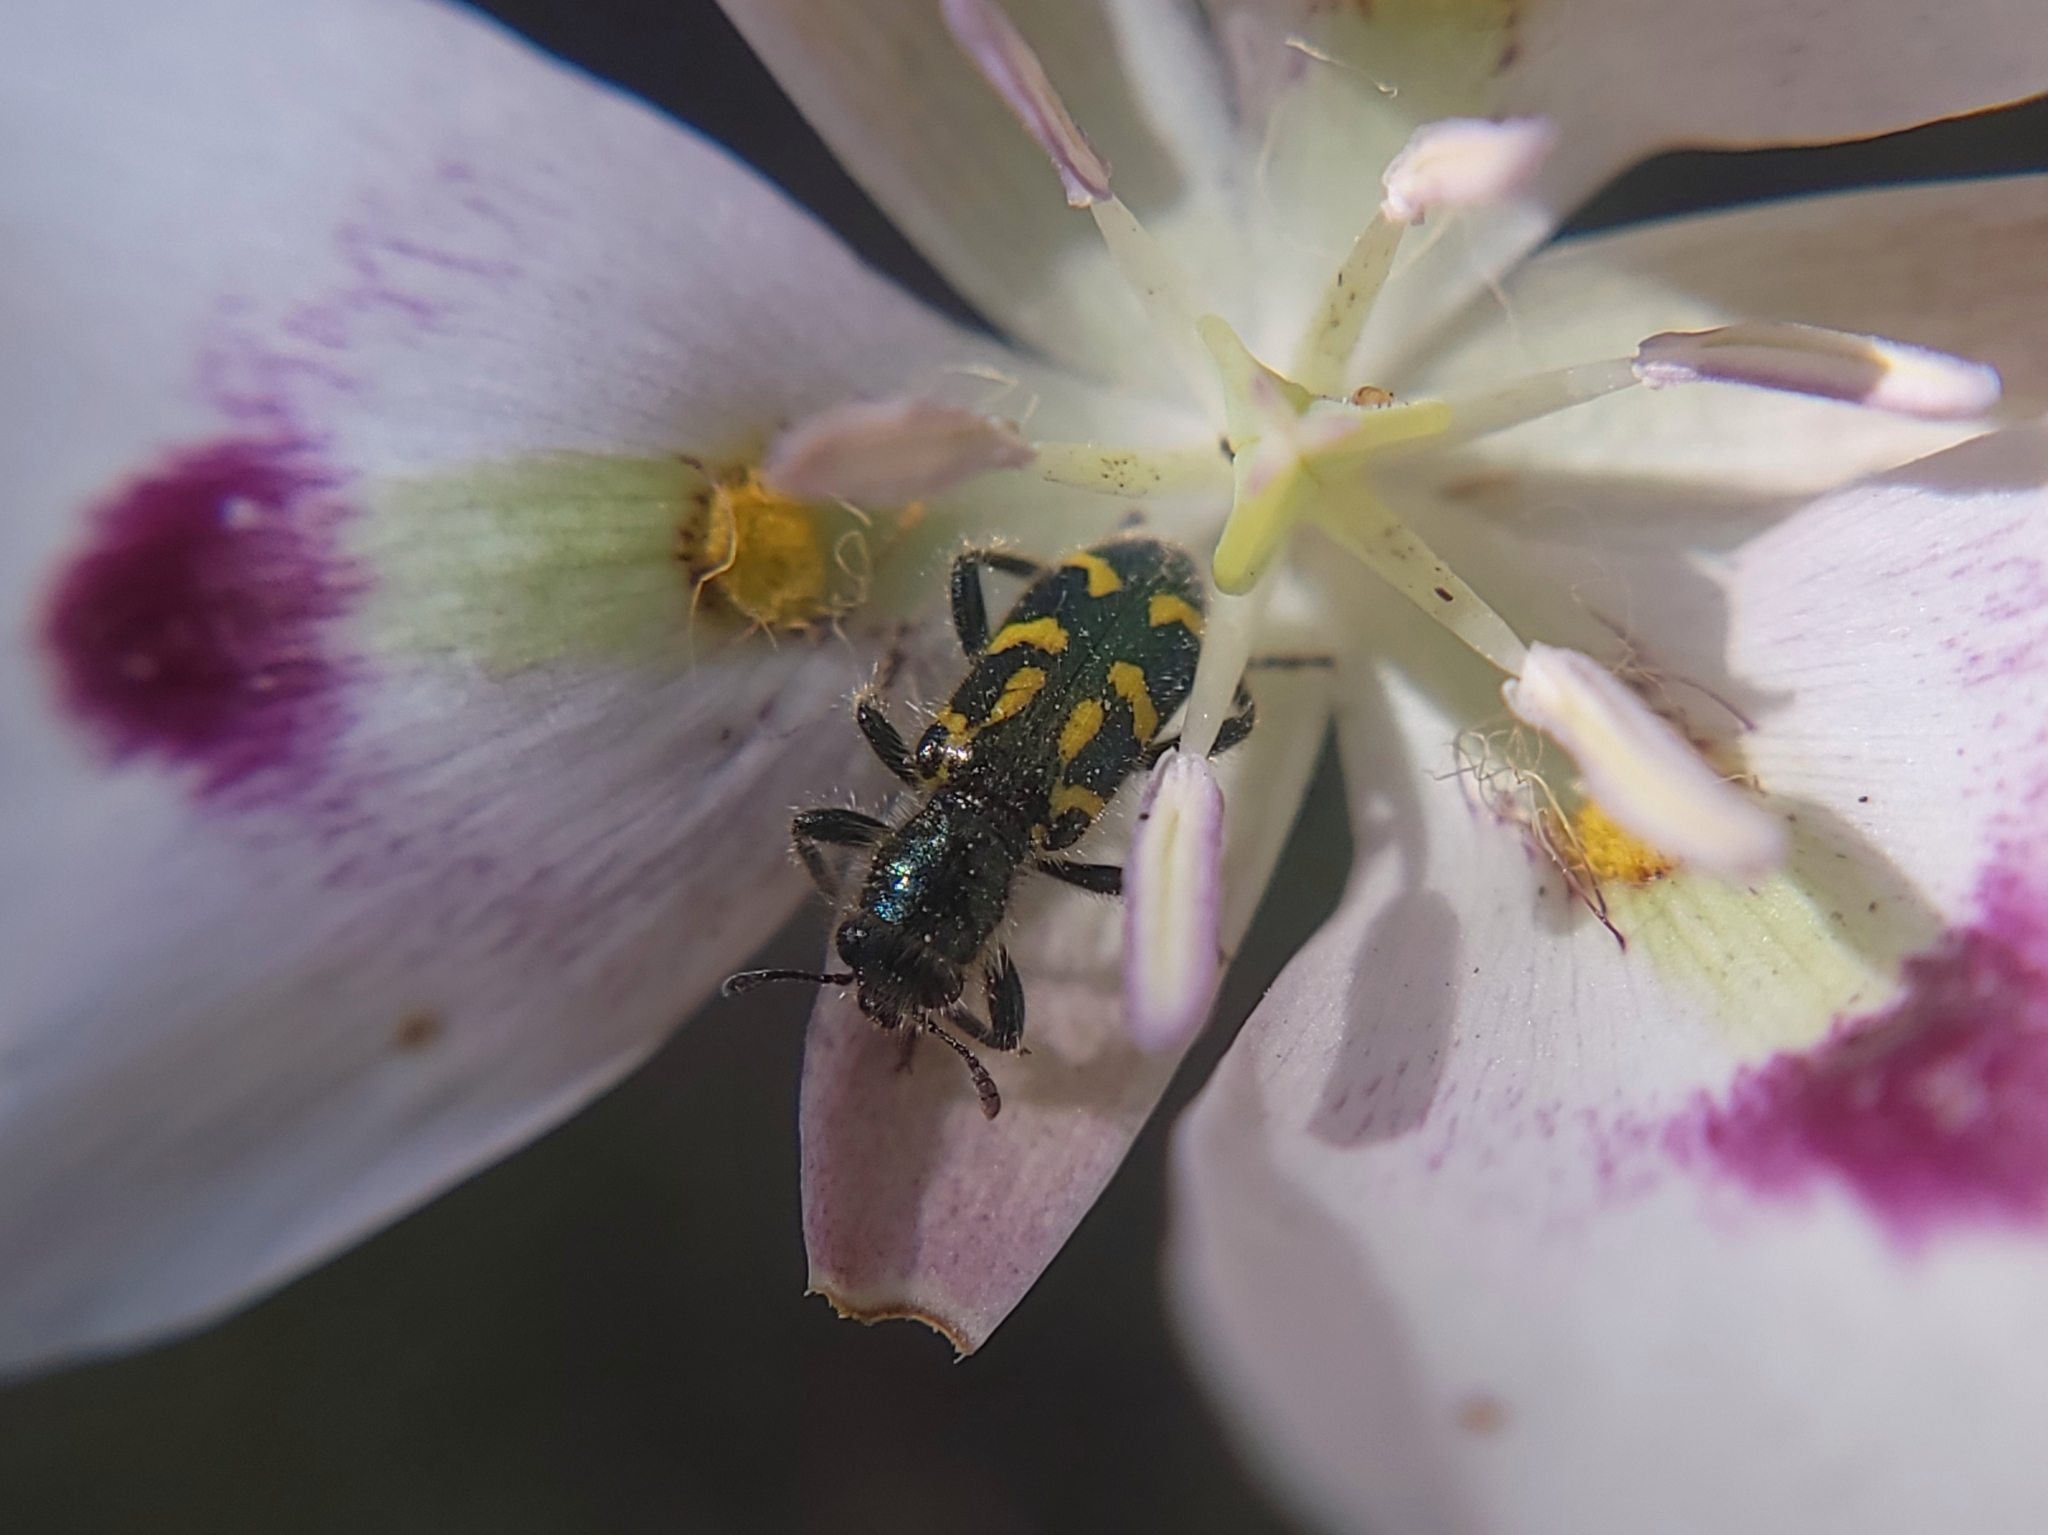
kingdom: Animalia
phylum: Arthropoda
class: Insecta
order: Coleoptera
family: Cleridae
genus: Trichodes
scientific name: Trichodes ornatus
